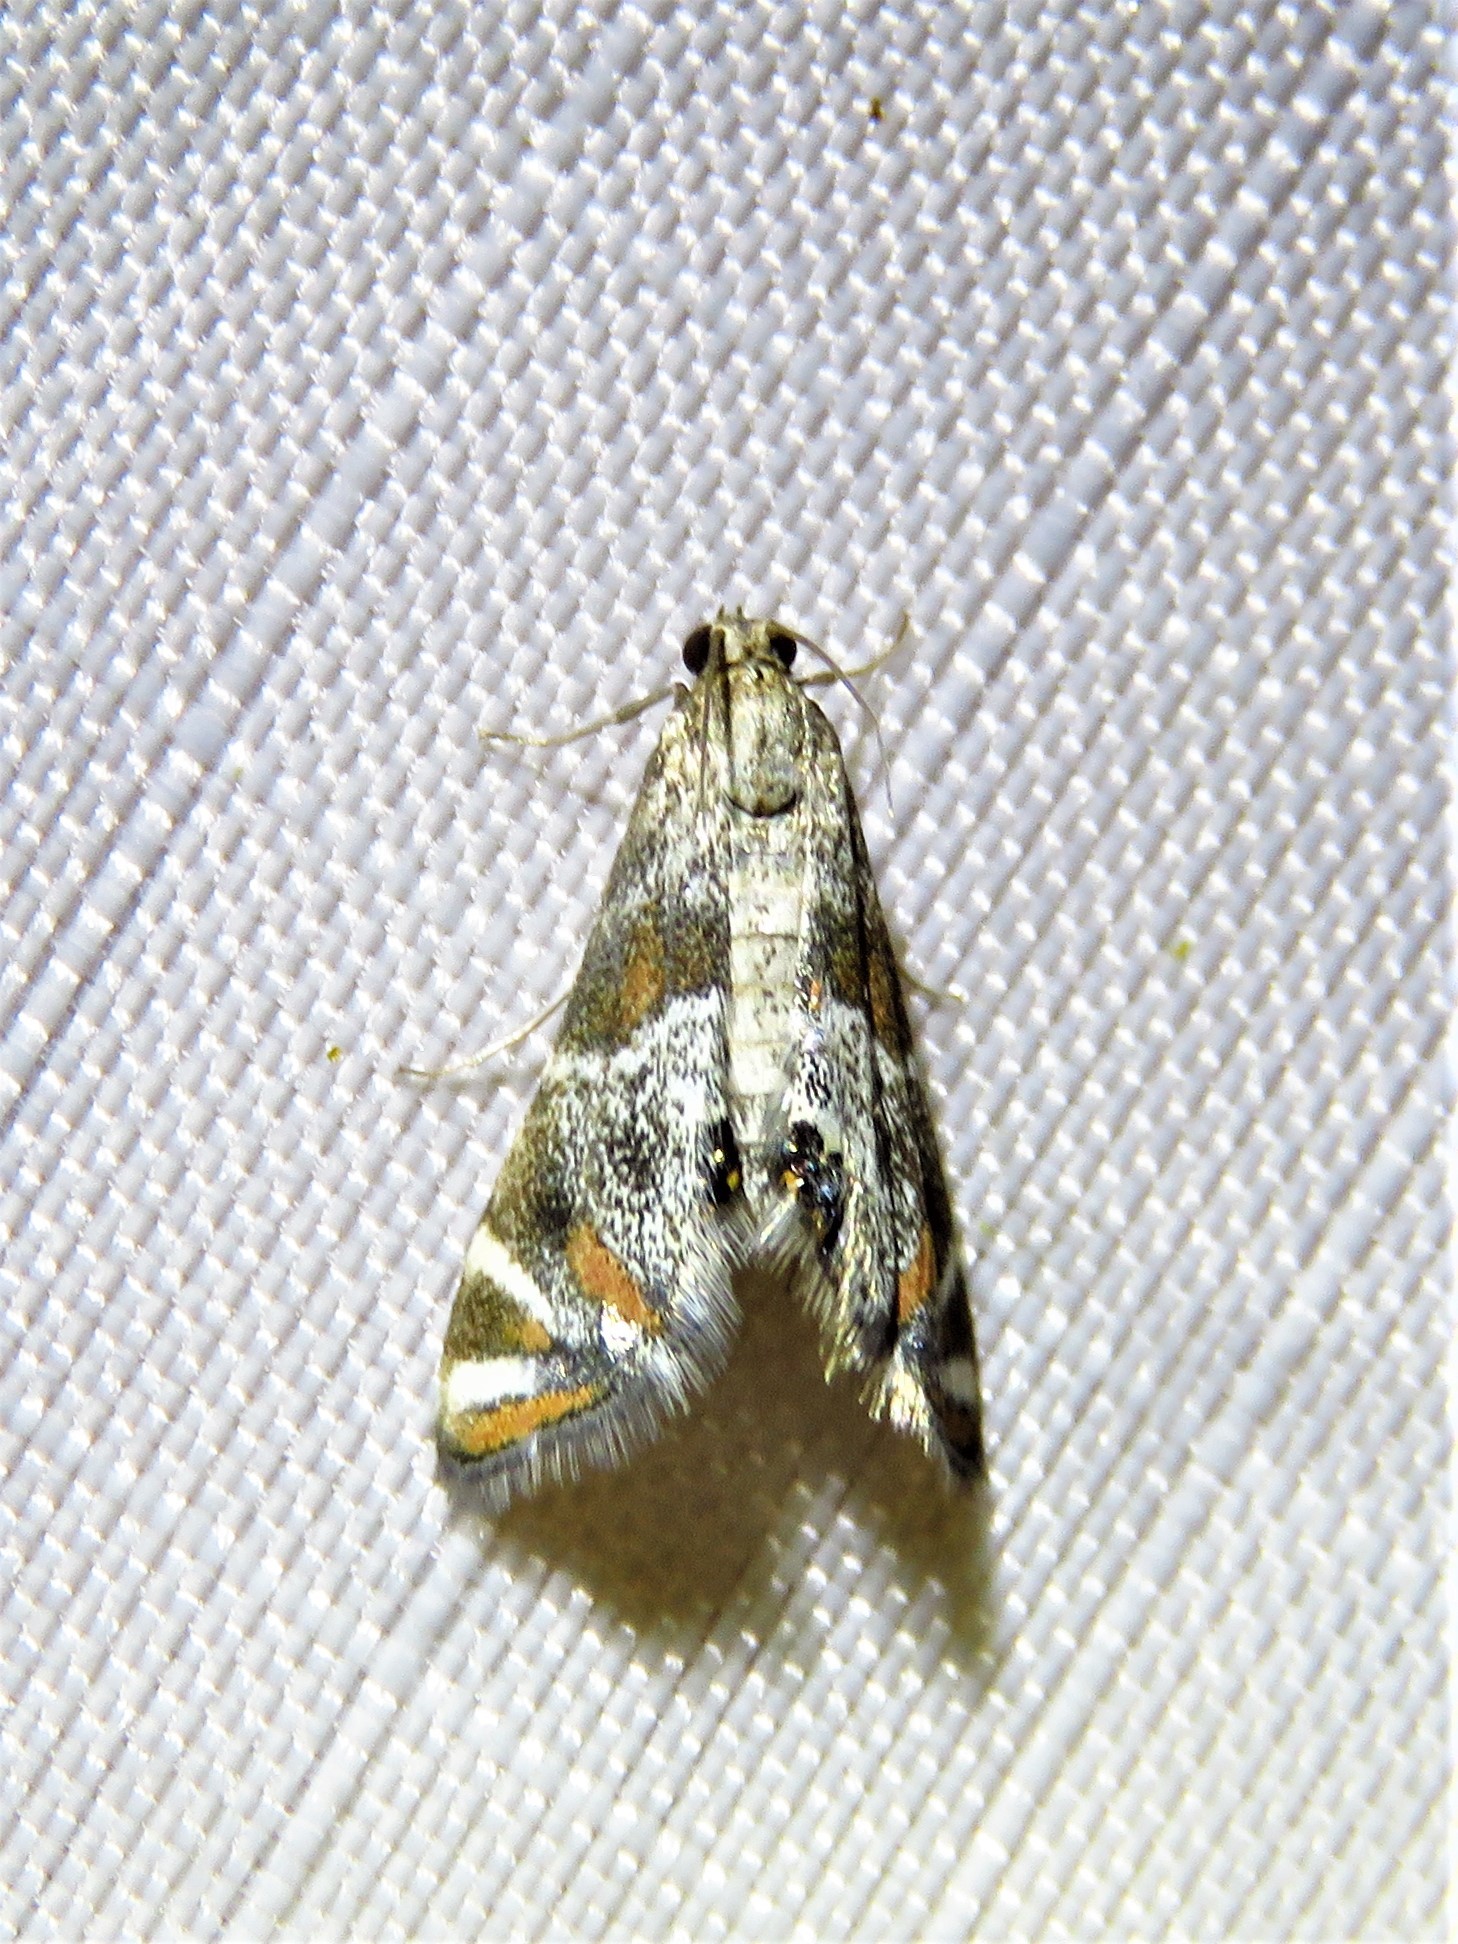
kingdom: Animalia
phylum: Arthropoda
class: Insecta
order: Lepidoptera
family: Crambidae
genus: Petrophila
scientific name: Petrophila jaliscalis
